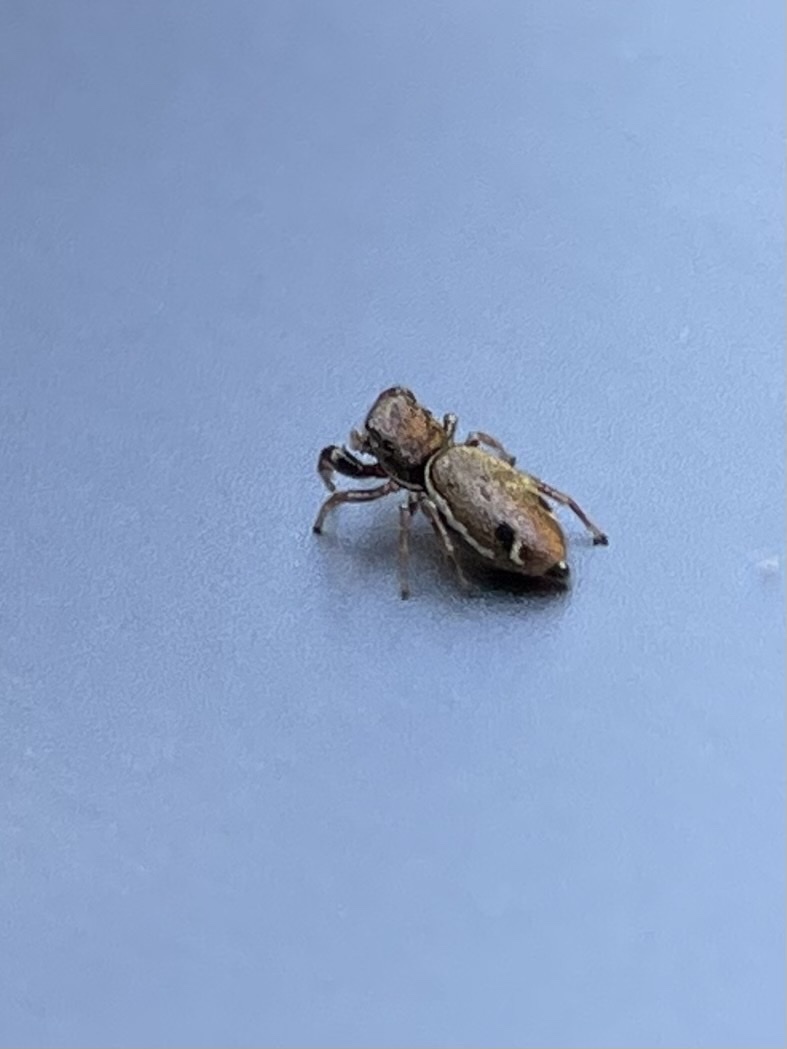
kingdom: Animalia
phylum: Arthropoda
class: Arachnida
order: Araneae
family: Salticidae
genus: Sassacus
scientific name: Sassacus vitis
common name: Jumping spiders
